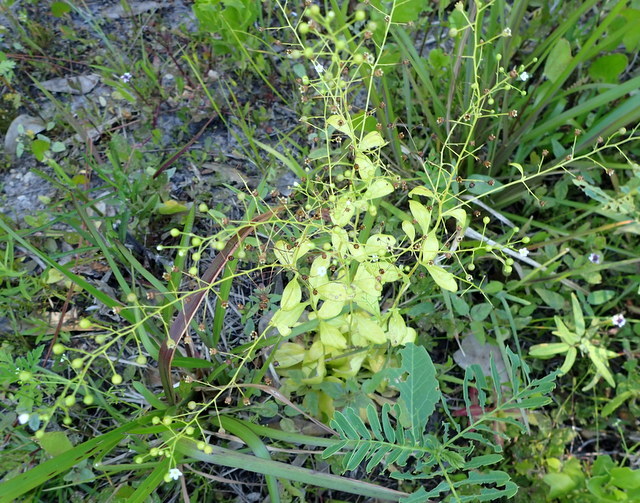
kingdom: Plantae
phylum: Tracheophyta
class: Magnoliopsida
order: Ericales
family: Primulaceae
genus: Samolus
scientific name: Samolus parviflorus
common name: False water pimpernel
